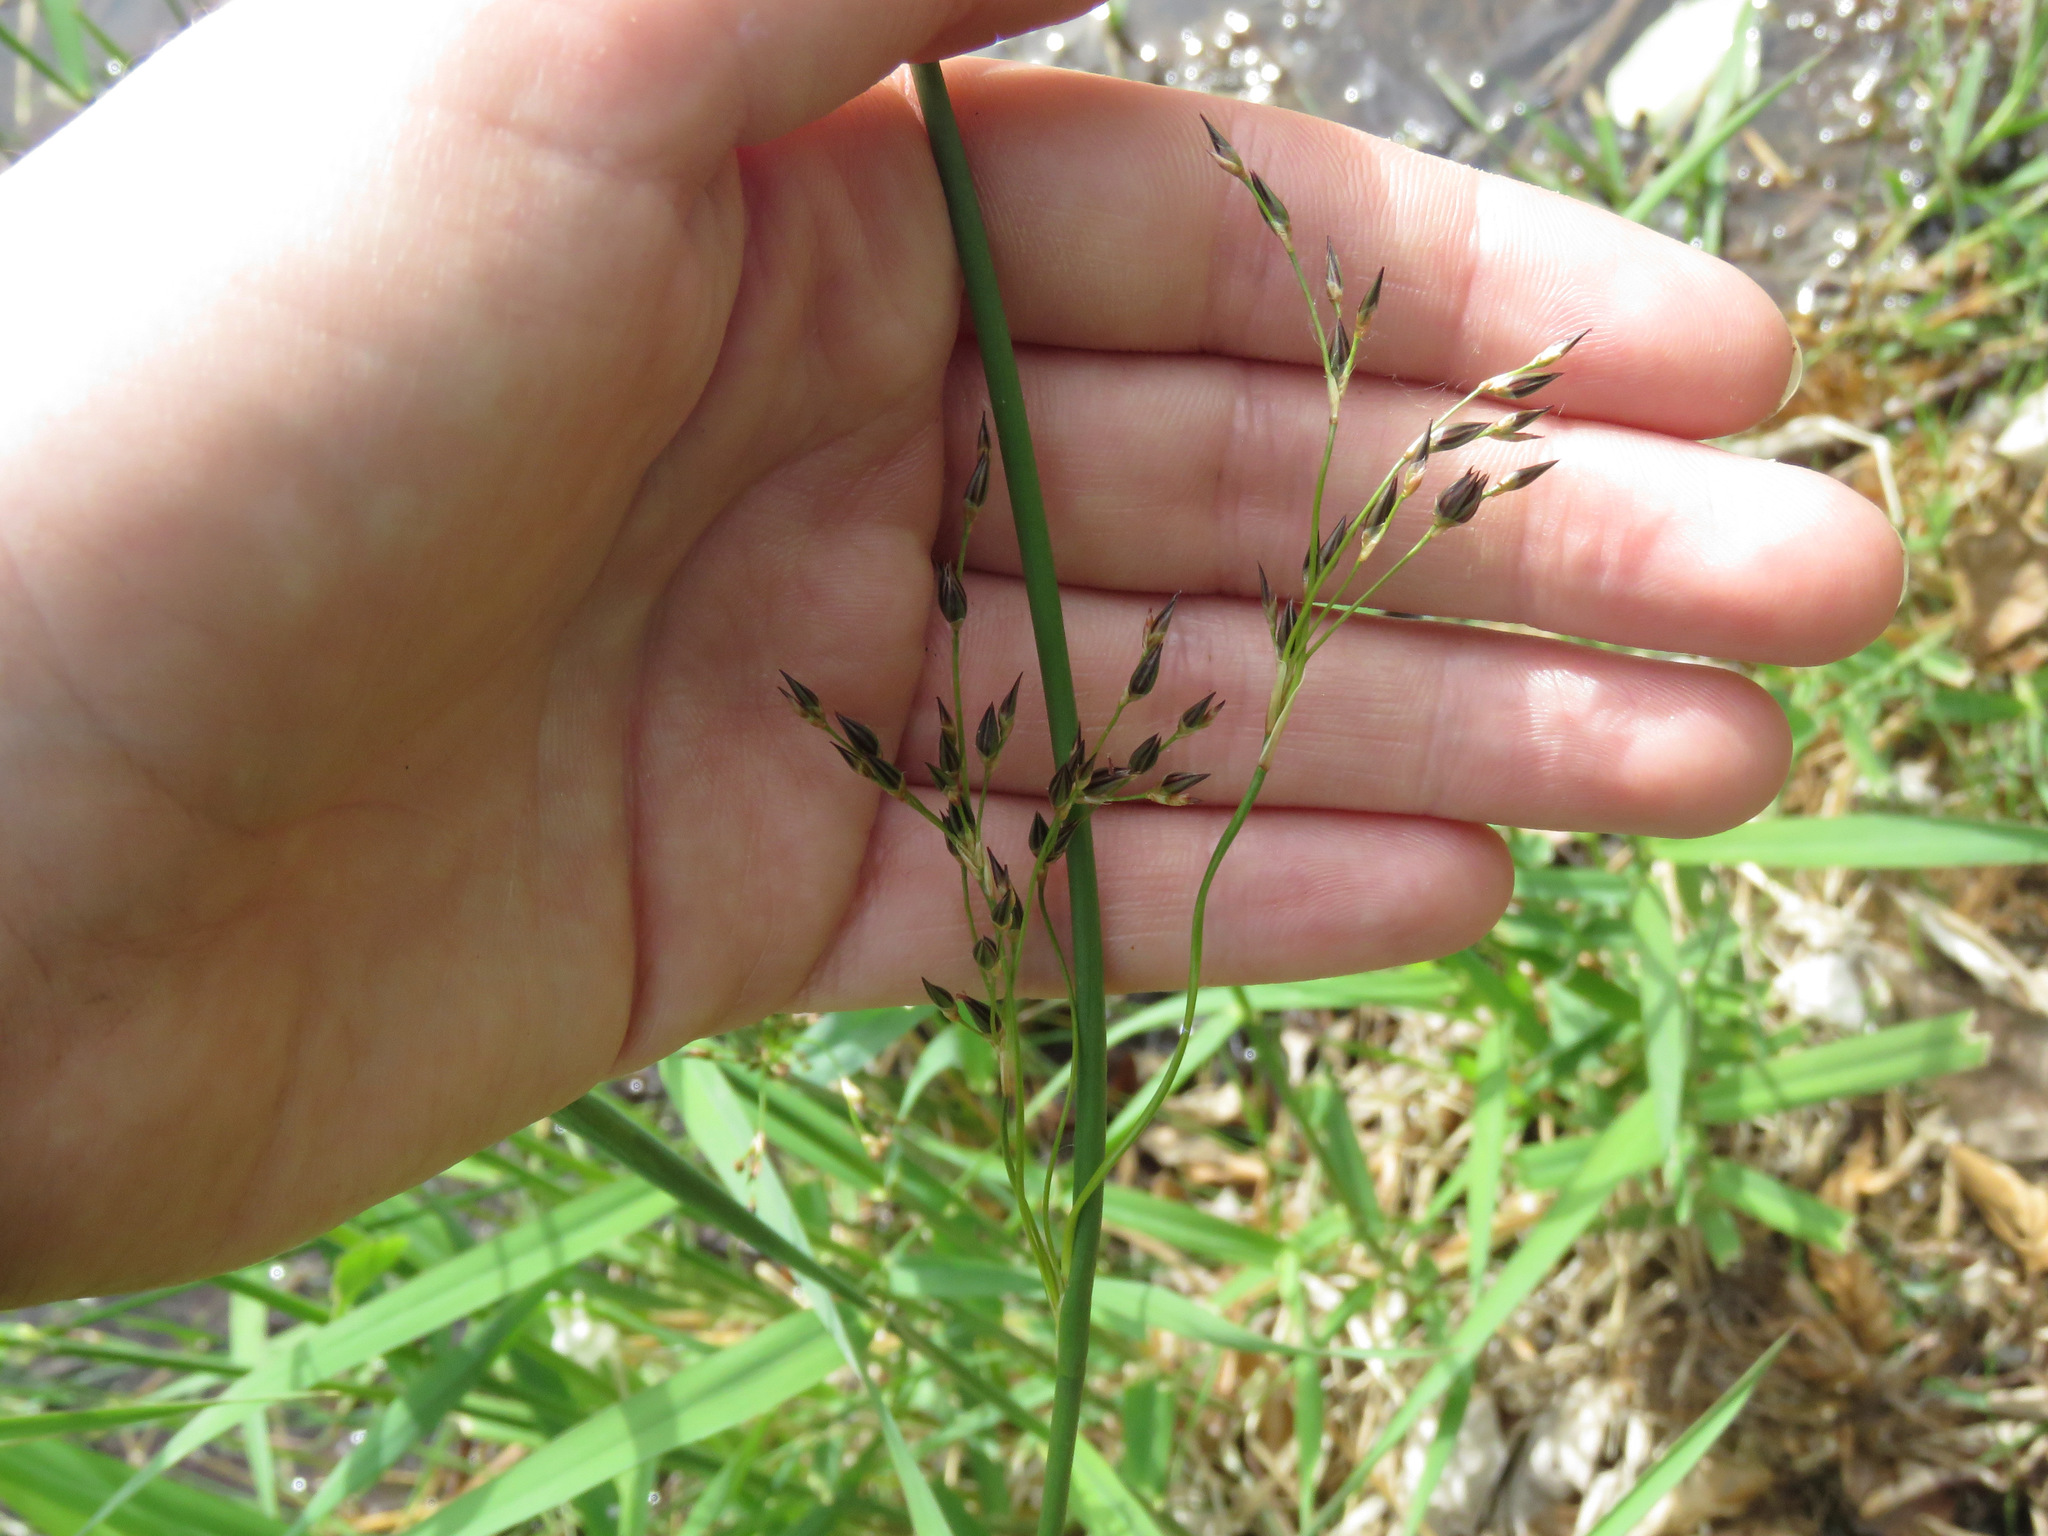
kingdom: Plantae
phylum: Tracheophyta
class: Liliopsida
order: Poales
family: Juncaceae
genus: Juncus
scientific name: Juncus balticus
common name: Baltic rush
